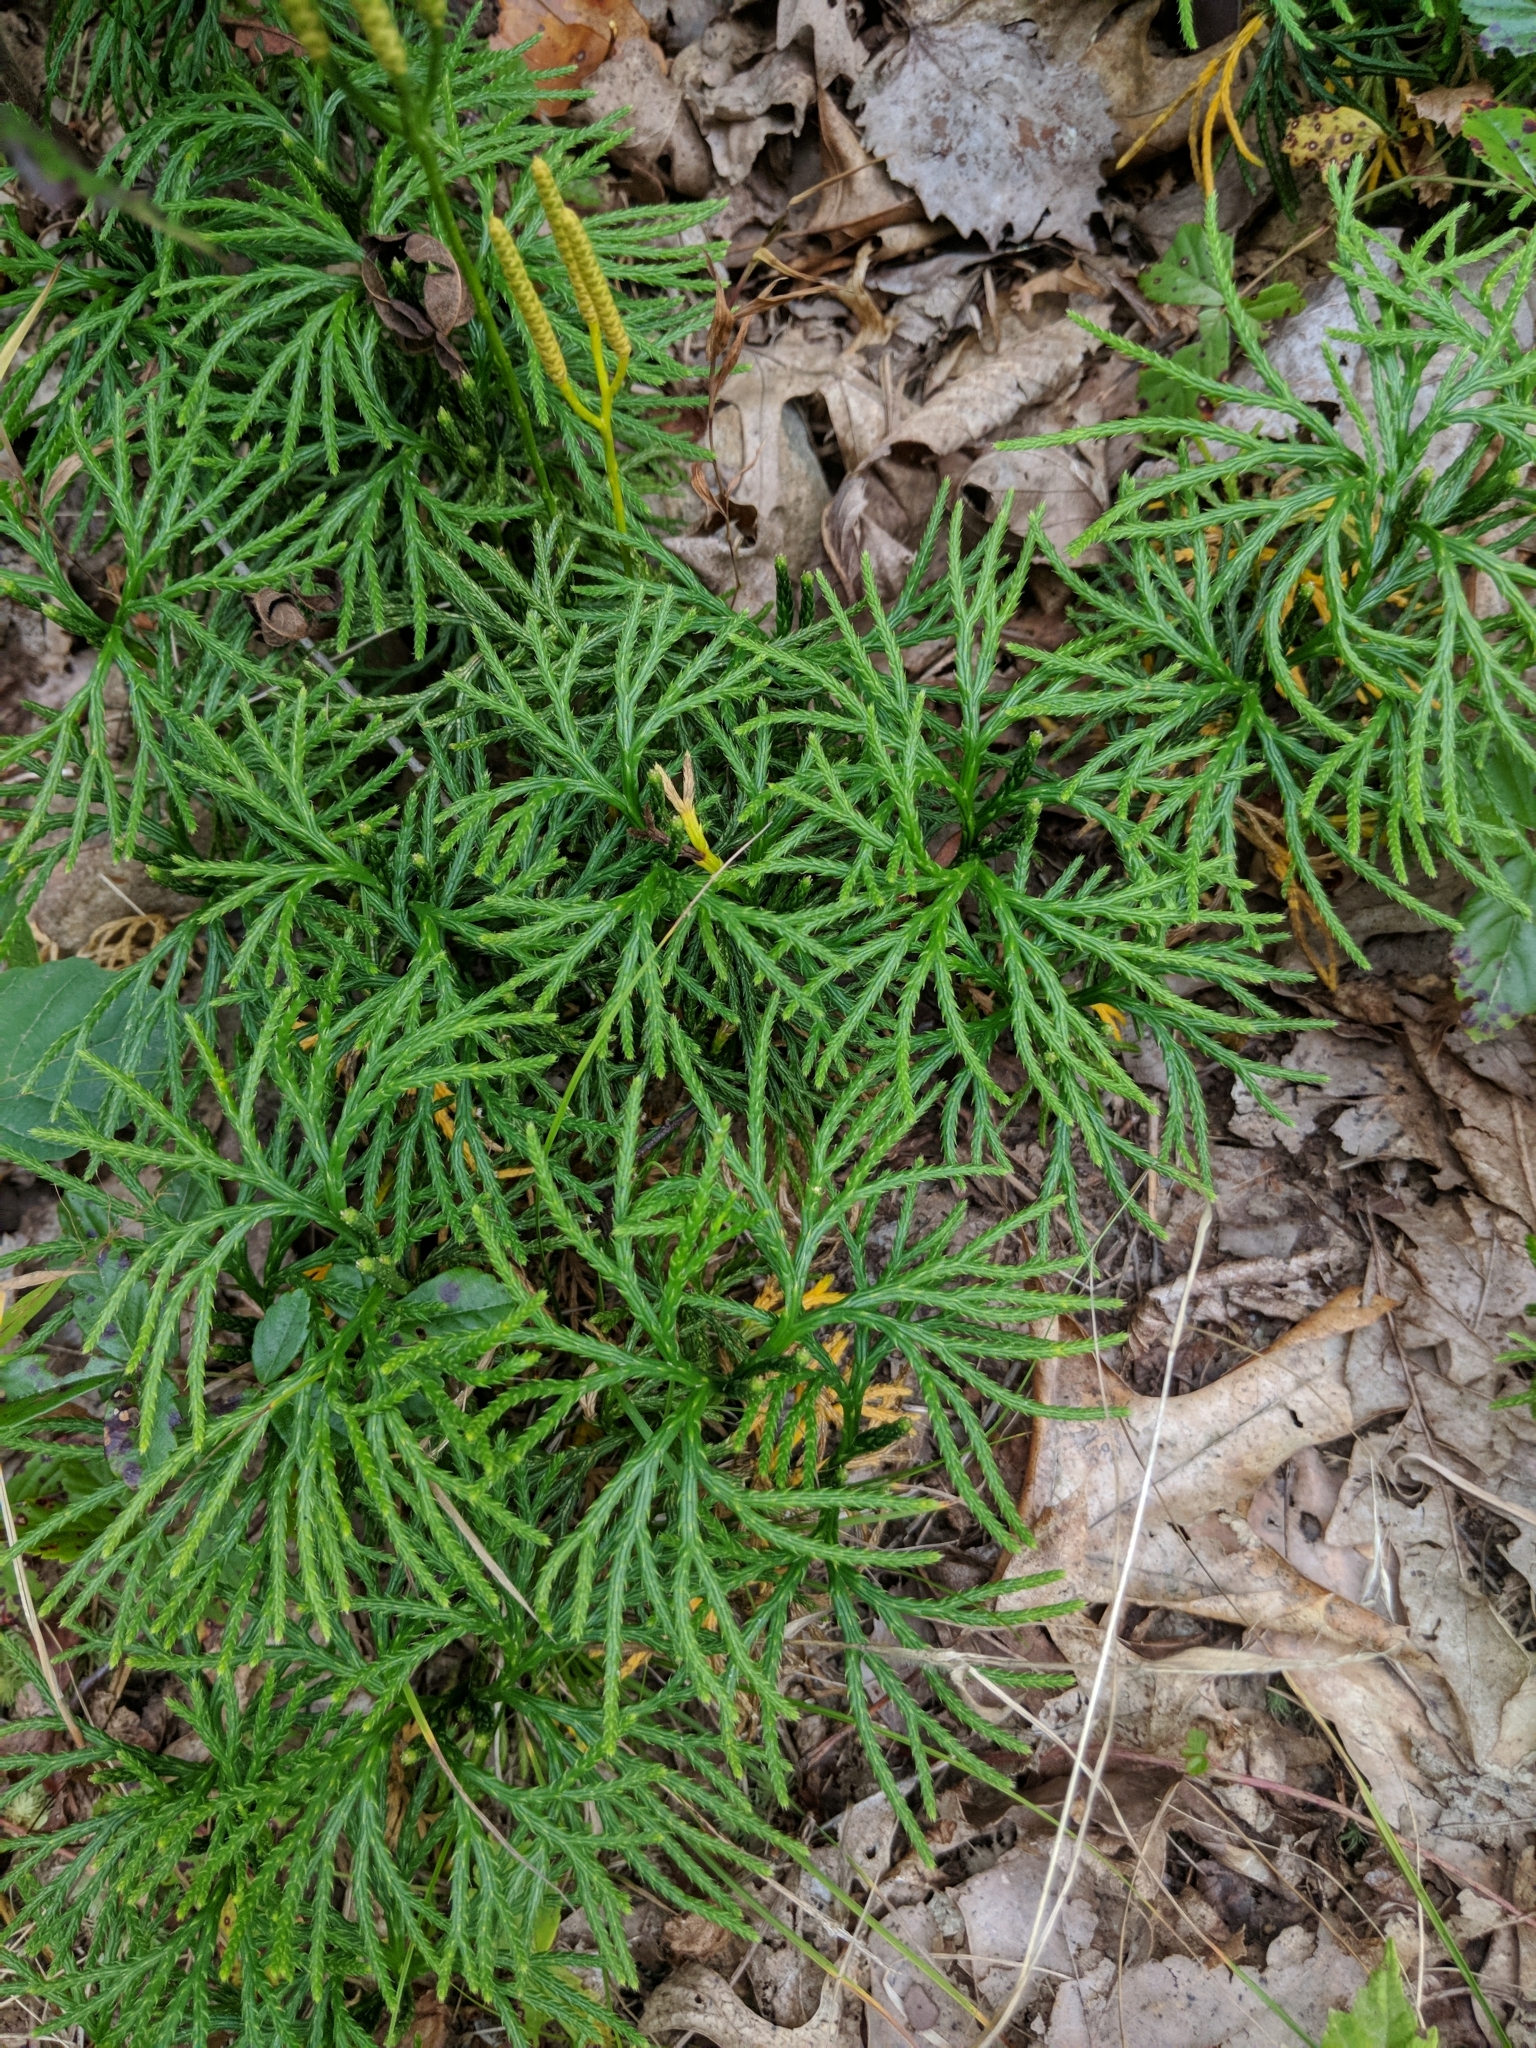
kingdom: Plantae
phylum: Tracheophyta
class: Lycopodiopsida
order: Lycopodiales
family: Lycopodiaceae
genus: Diphasiastrum
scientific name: Diphasiastrum digitatum
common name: Southern running-pine
